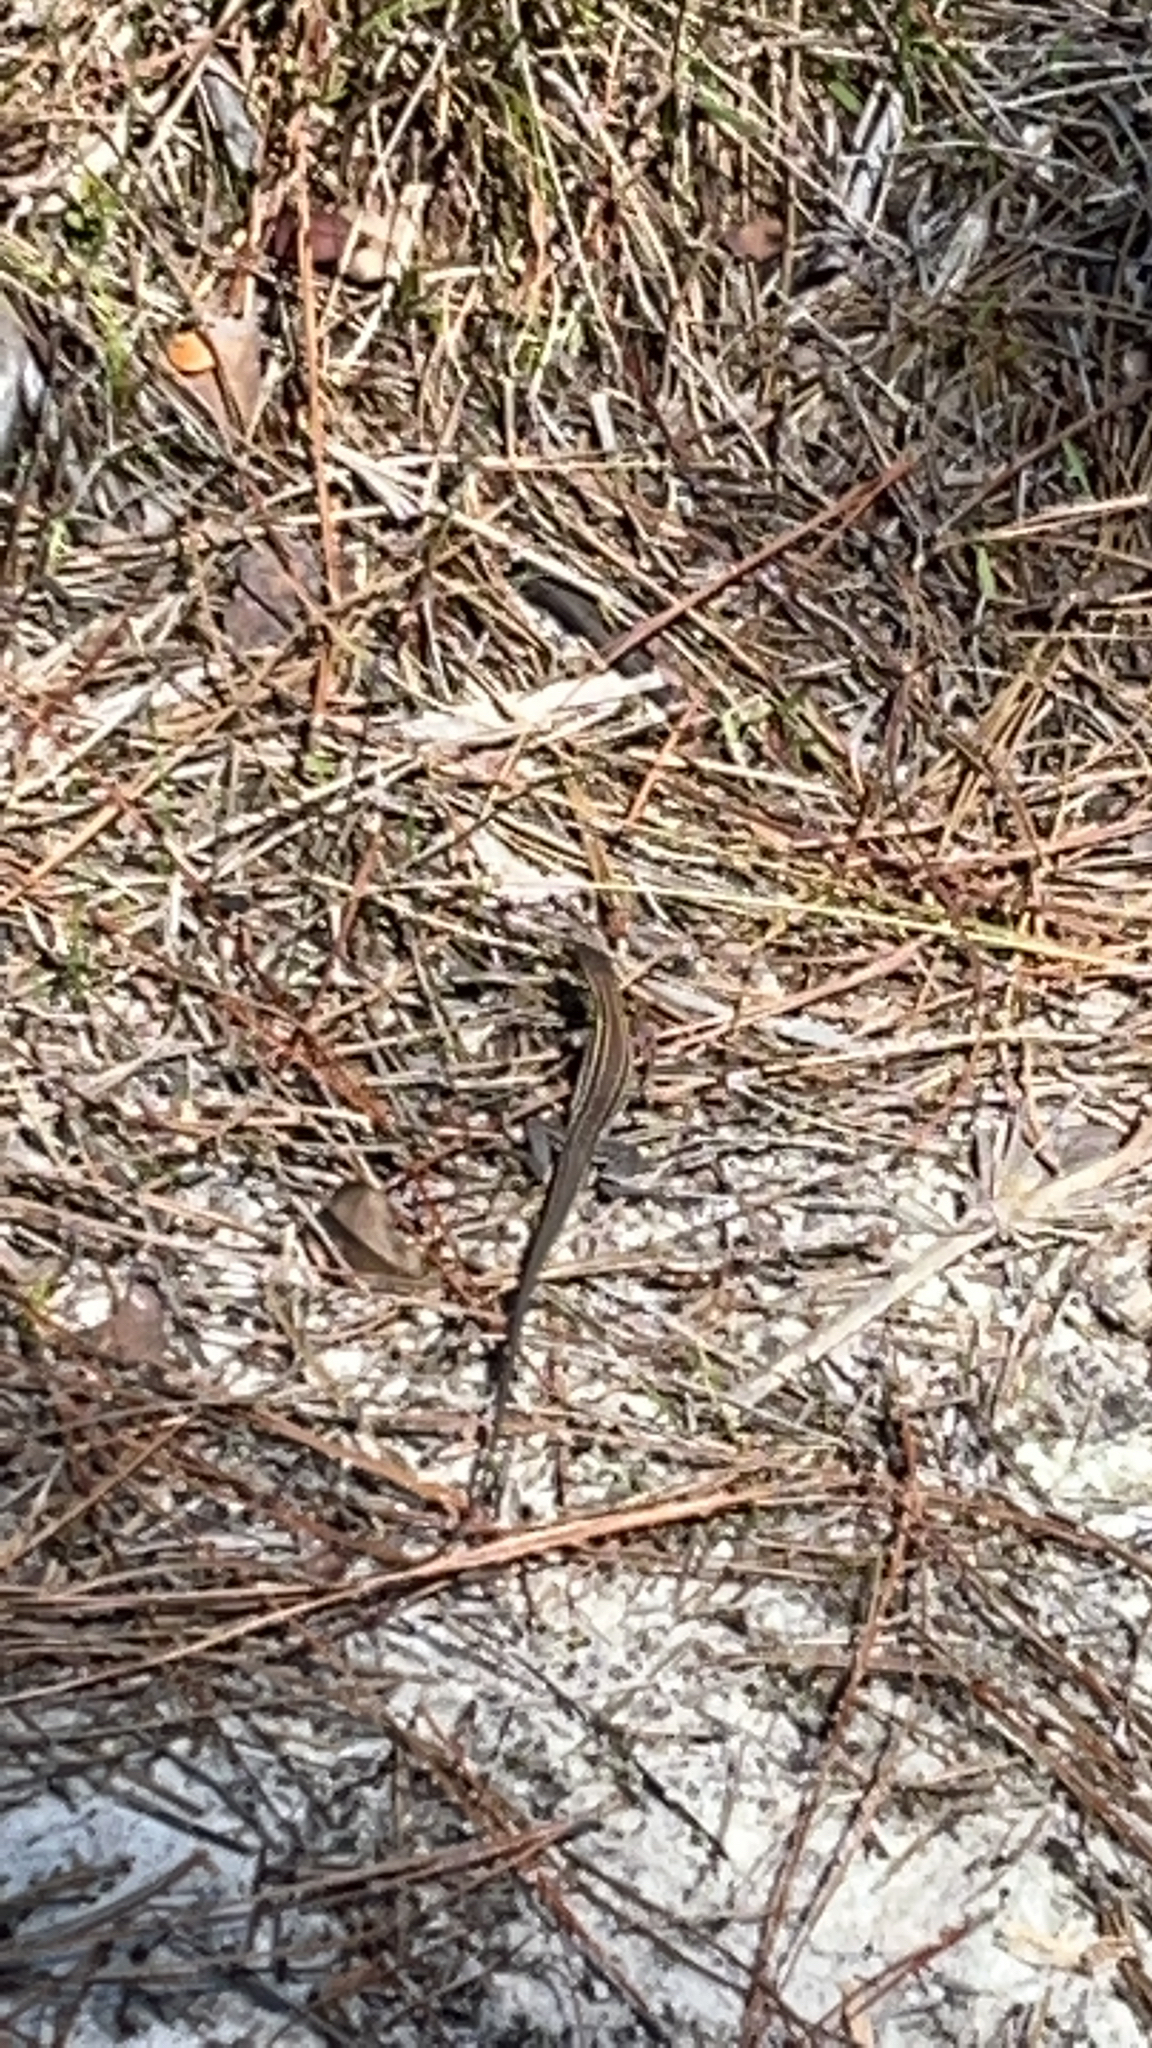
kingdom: Animalia
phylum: Chordata
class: Squamata
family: Teiidae
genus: Aspidoscelis
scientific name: Aspidoscelis sexlineatus
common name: Six-lined racerunner
